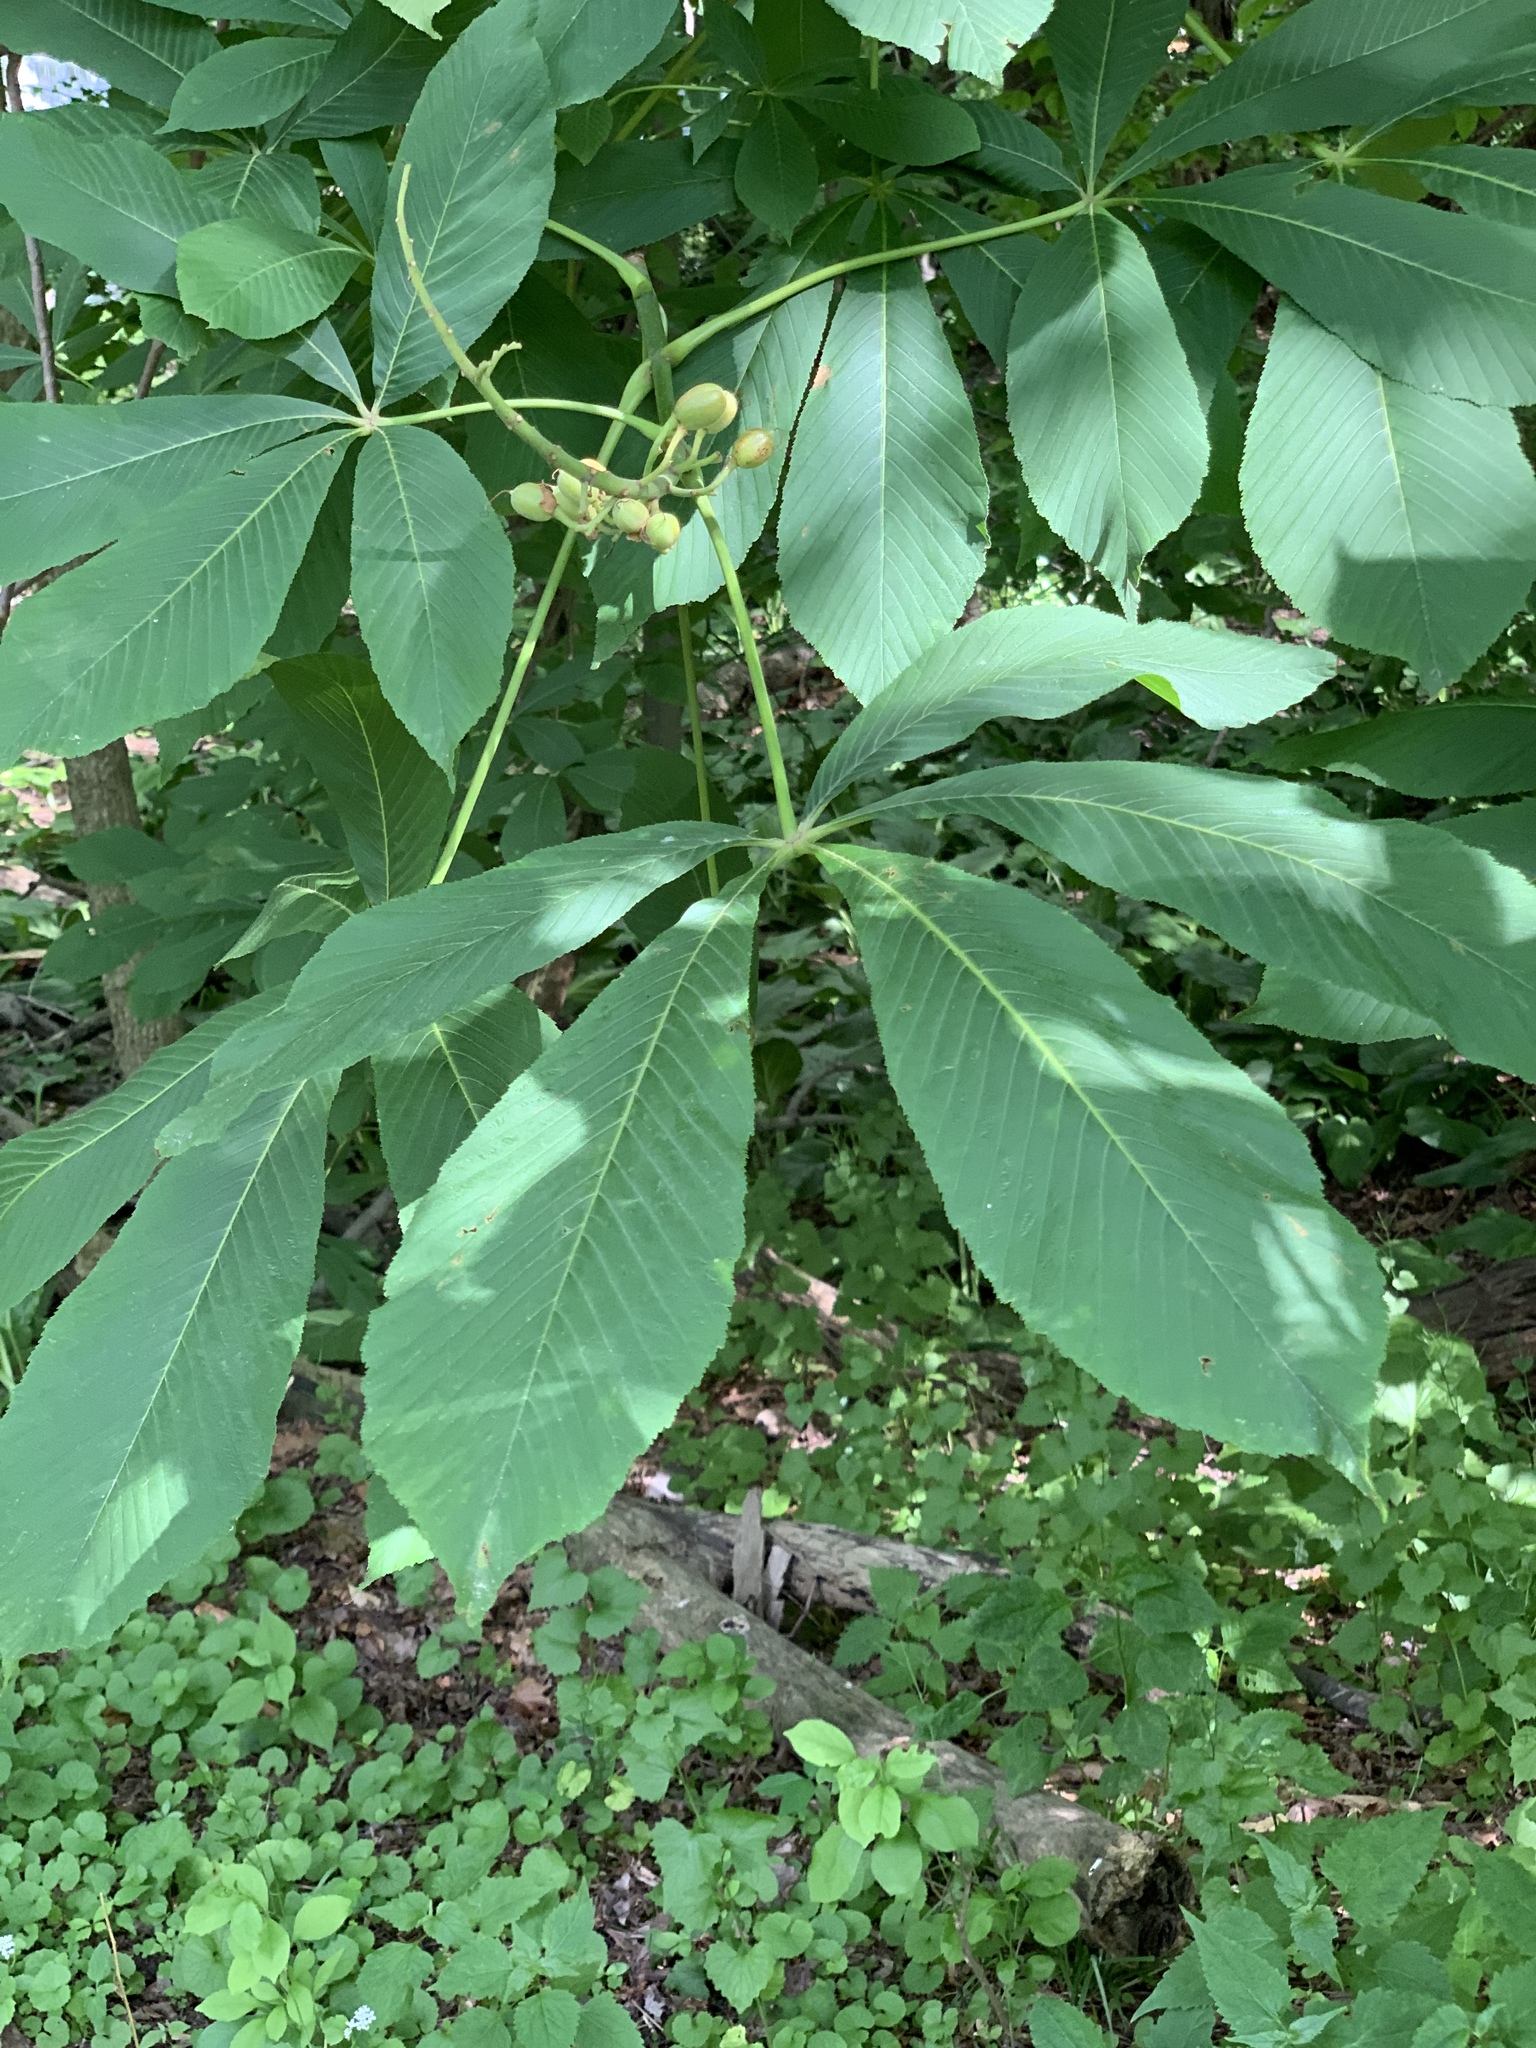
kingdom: Plantae
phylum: Tracheophyta
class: Magnoliopsida
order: Sapindales
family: Sapindaceae
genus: Aesculus
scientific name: Aesculus flava
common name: Yellow buckeye
